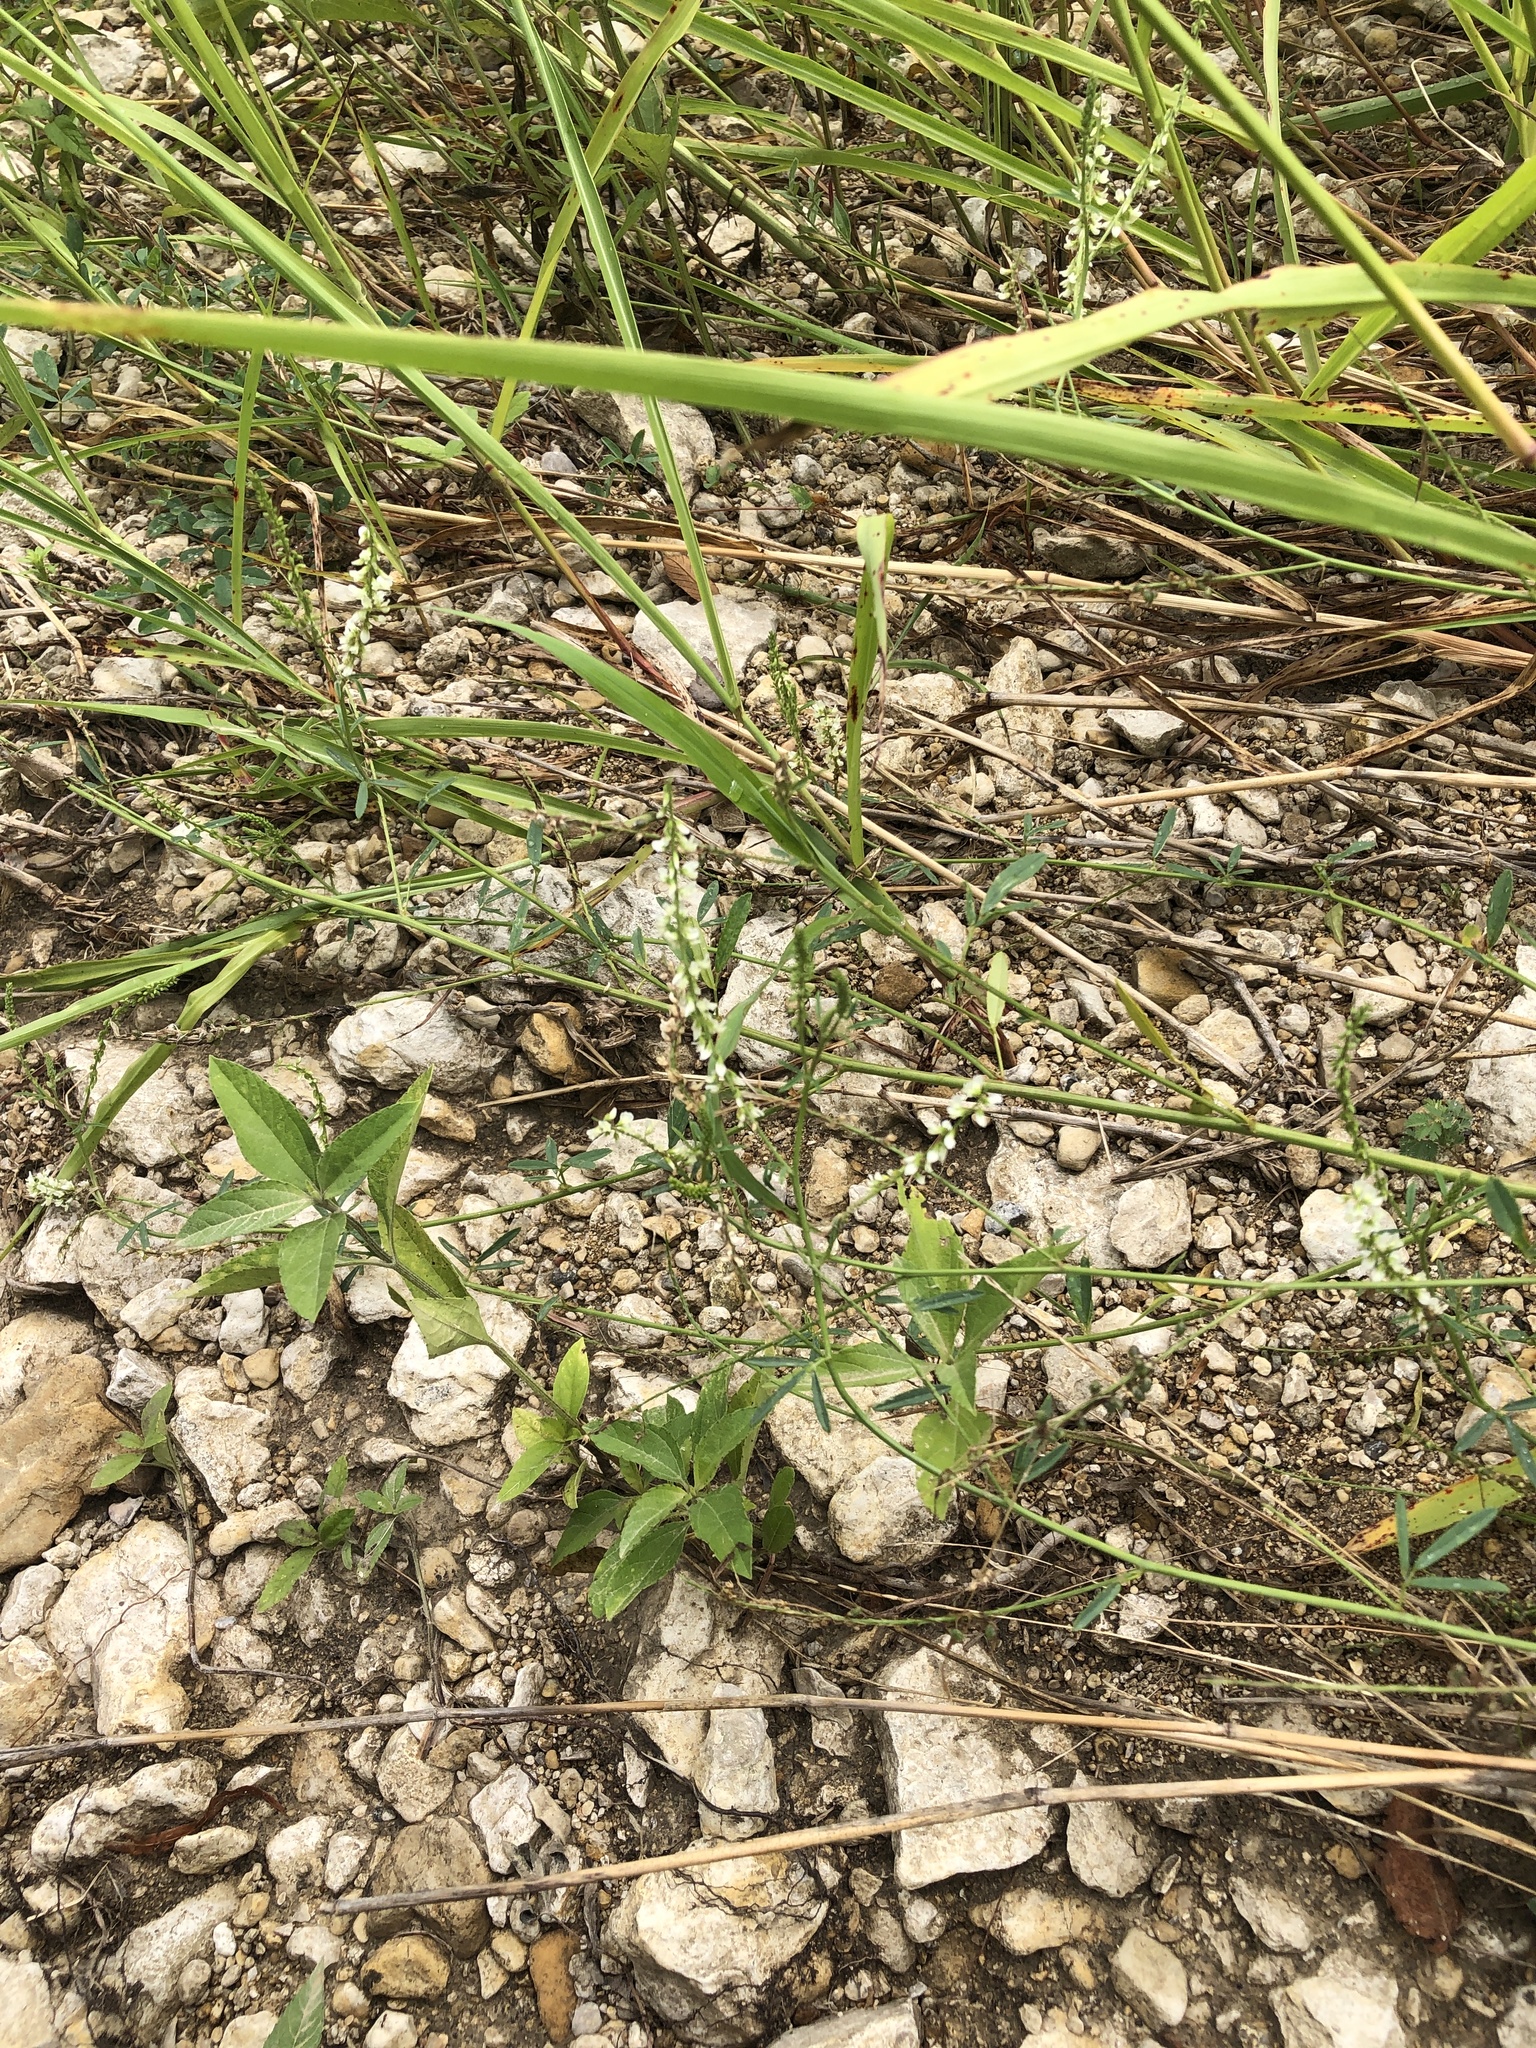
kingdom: Plantae
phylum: Tracheophyta
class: Magnoliopsida
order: Fabales
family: Fabaceae
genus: Melilotus
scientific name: Melilotus albus
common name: White melilot
